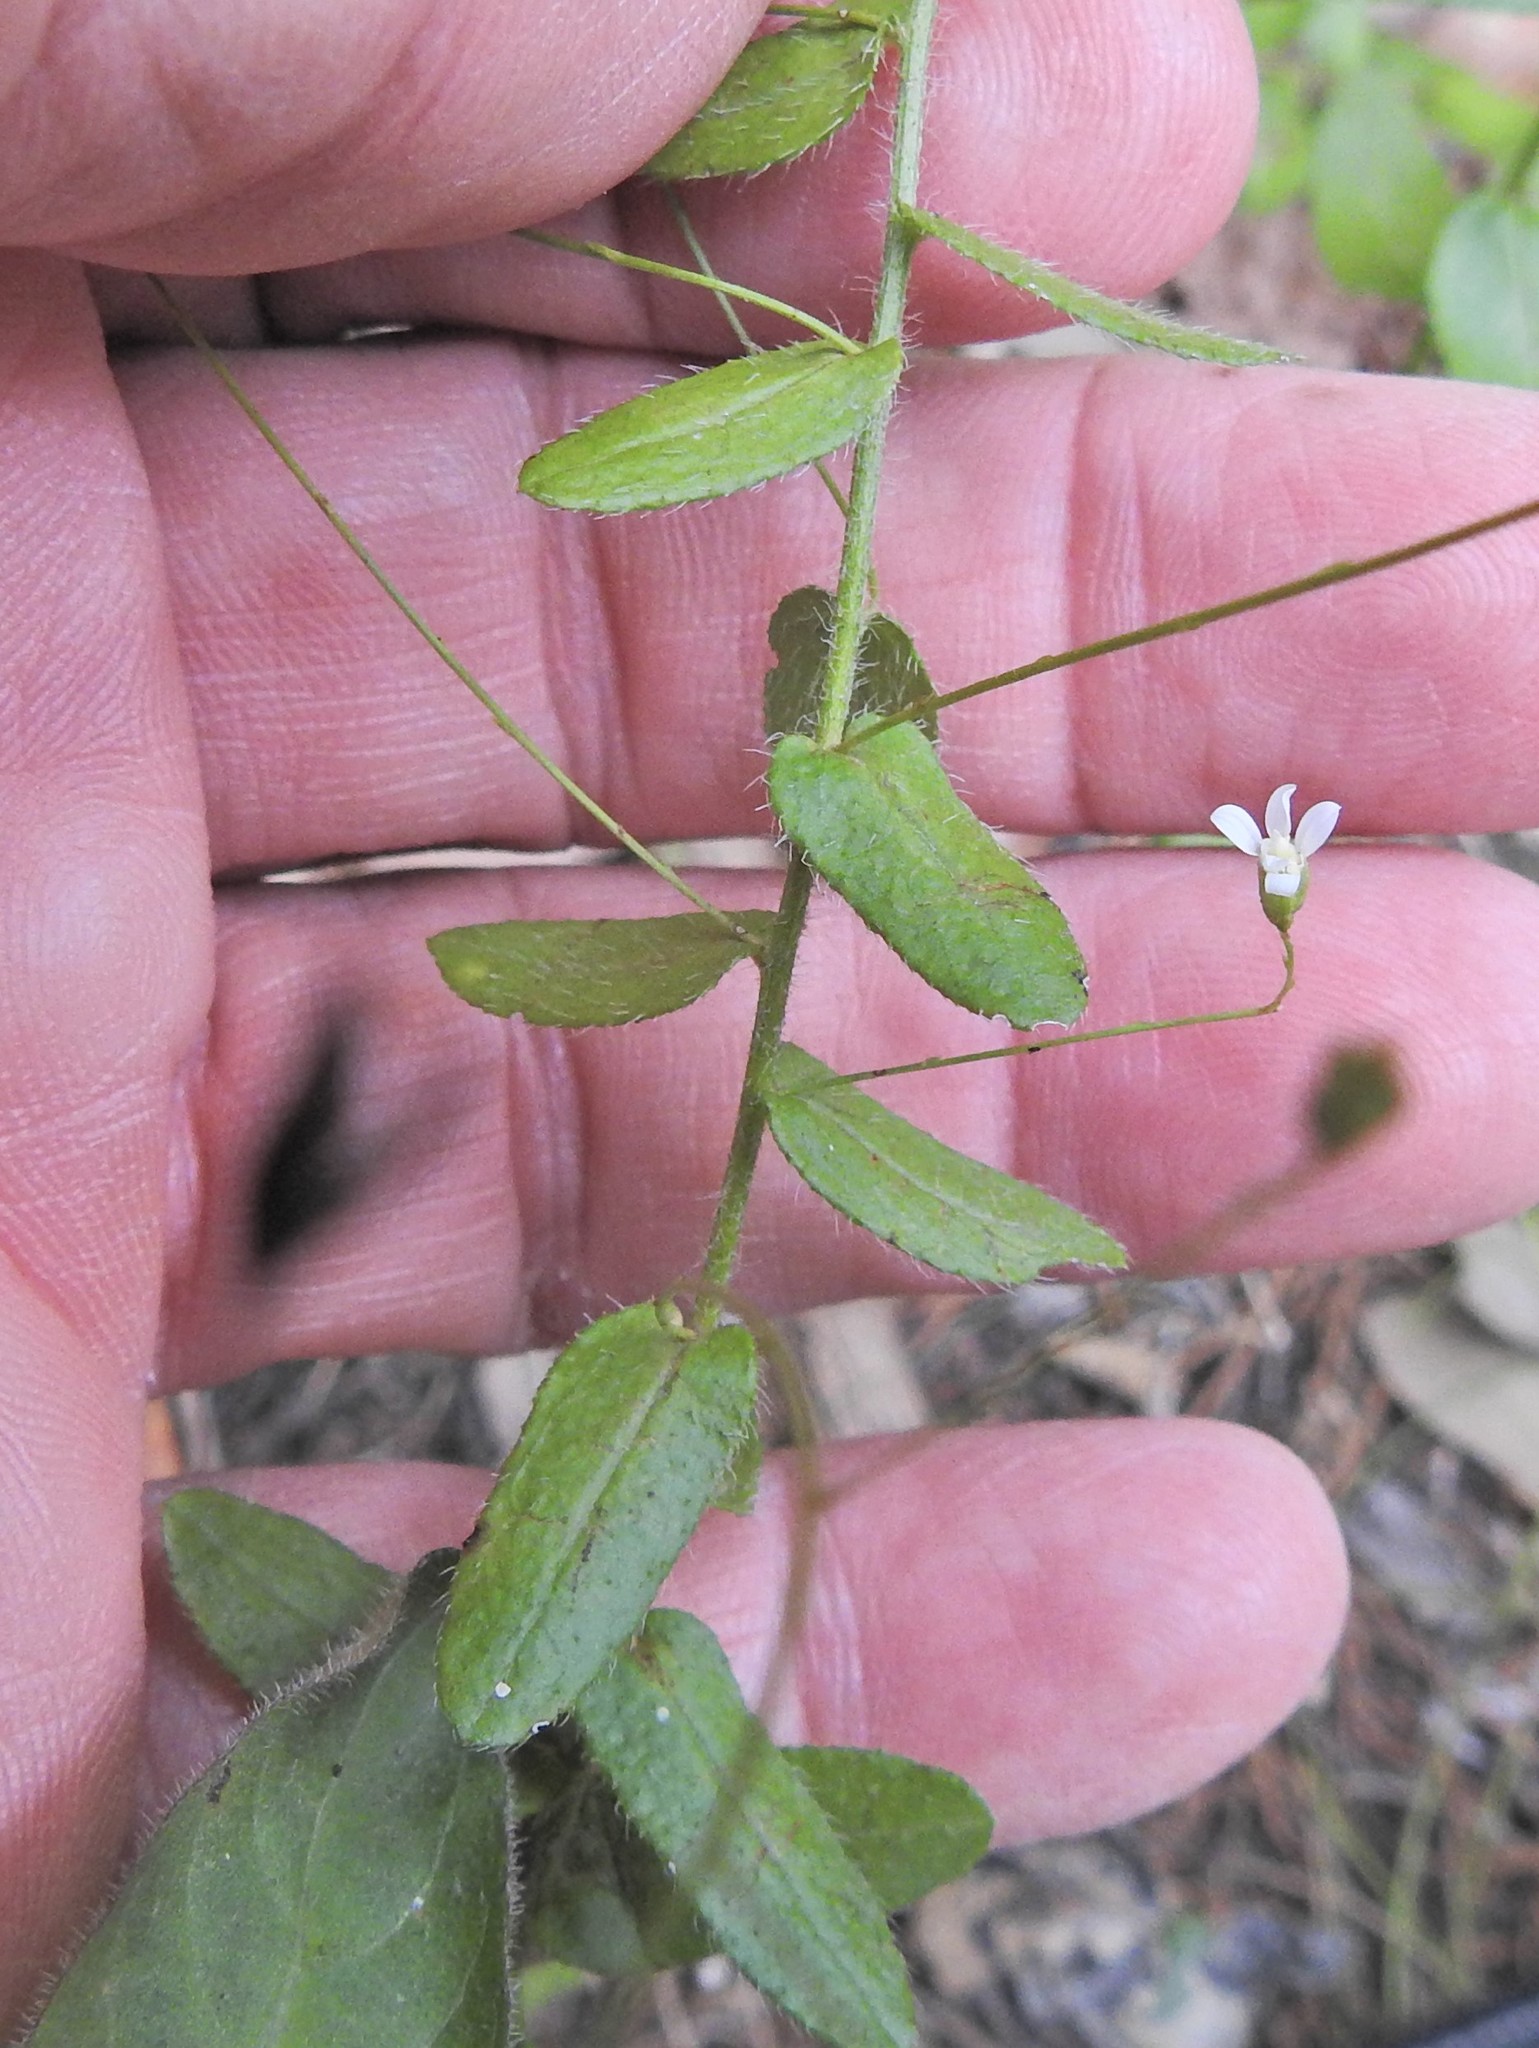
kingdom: Plantae
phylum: Tracheophyta
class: Magnoliopsida
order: Asterales
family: Asteraceae
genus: Chaetopappa
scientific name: Chaetopappa effusa
